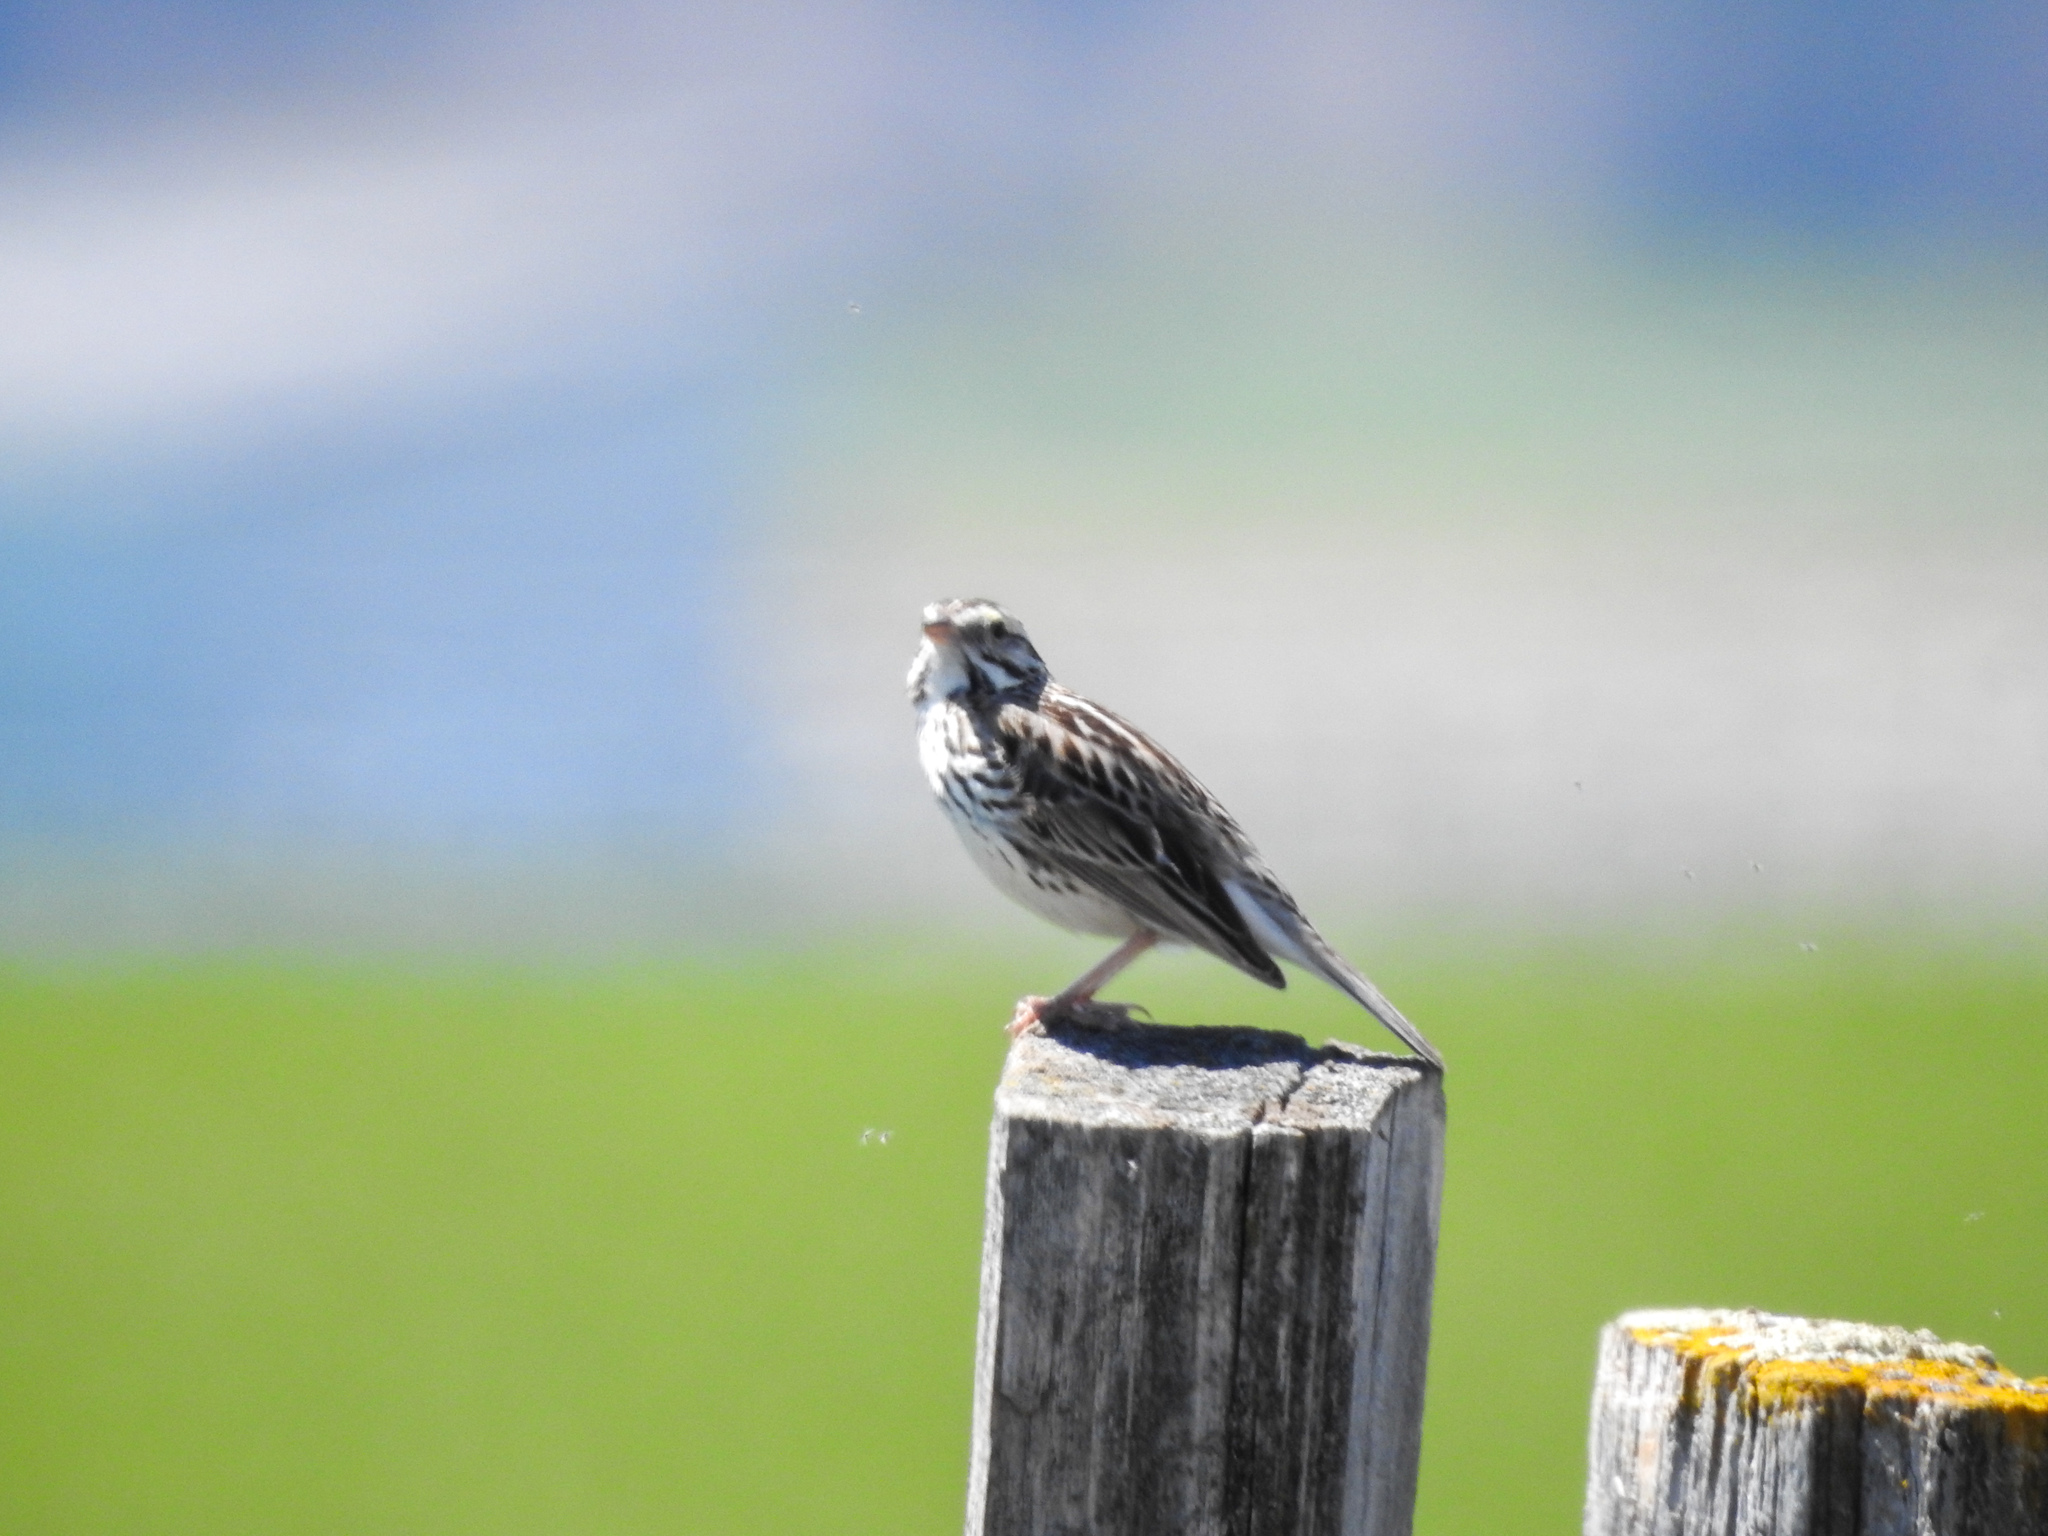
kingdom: Animalia
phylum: Chordata
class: Aves
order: Passeriformes
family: Passerellidae
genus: Passerculus
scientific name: Passerculus sandwichensis
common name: Savannah sparrow
